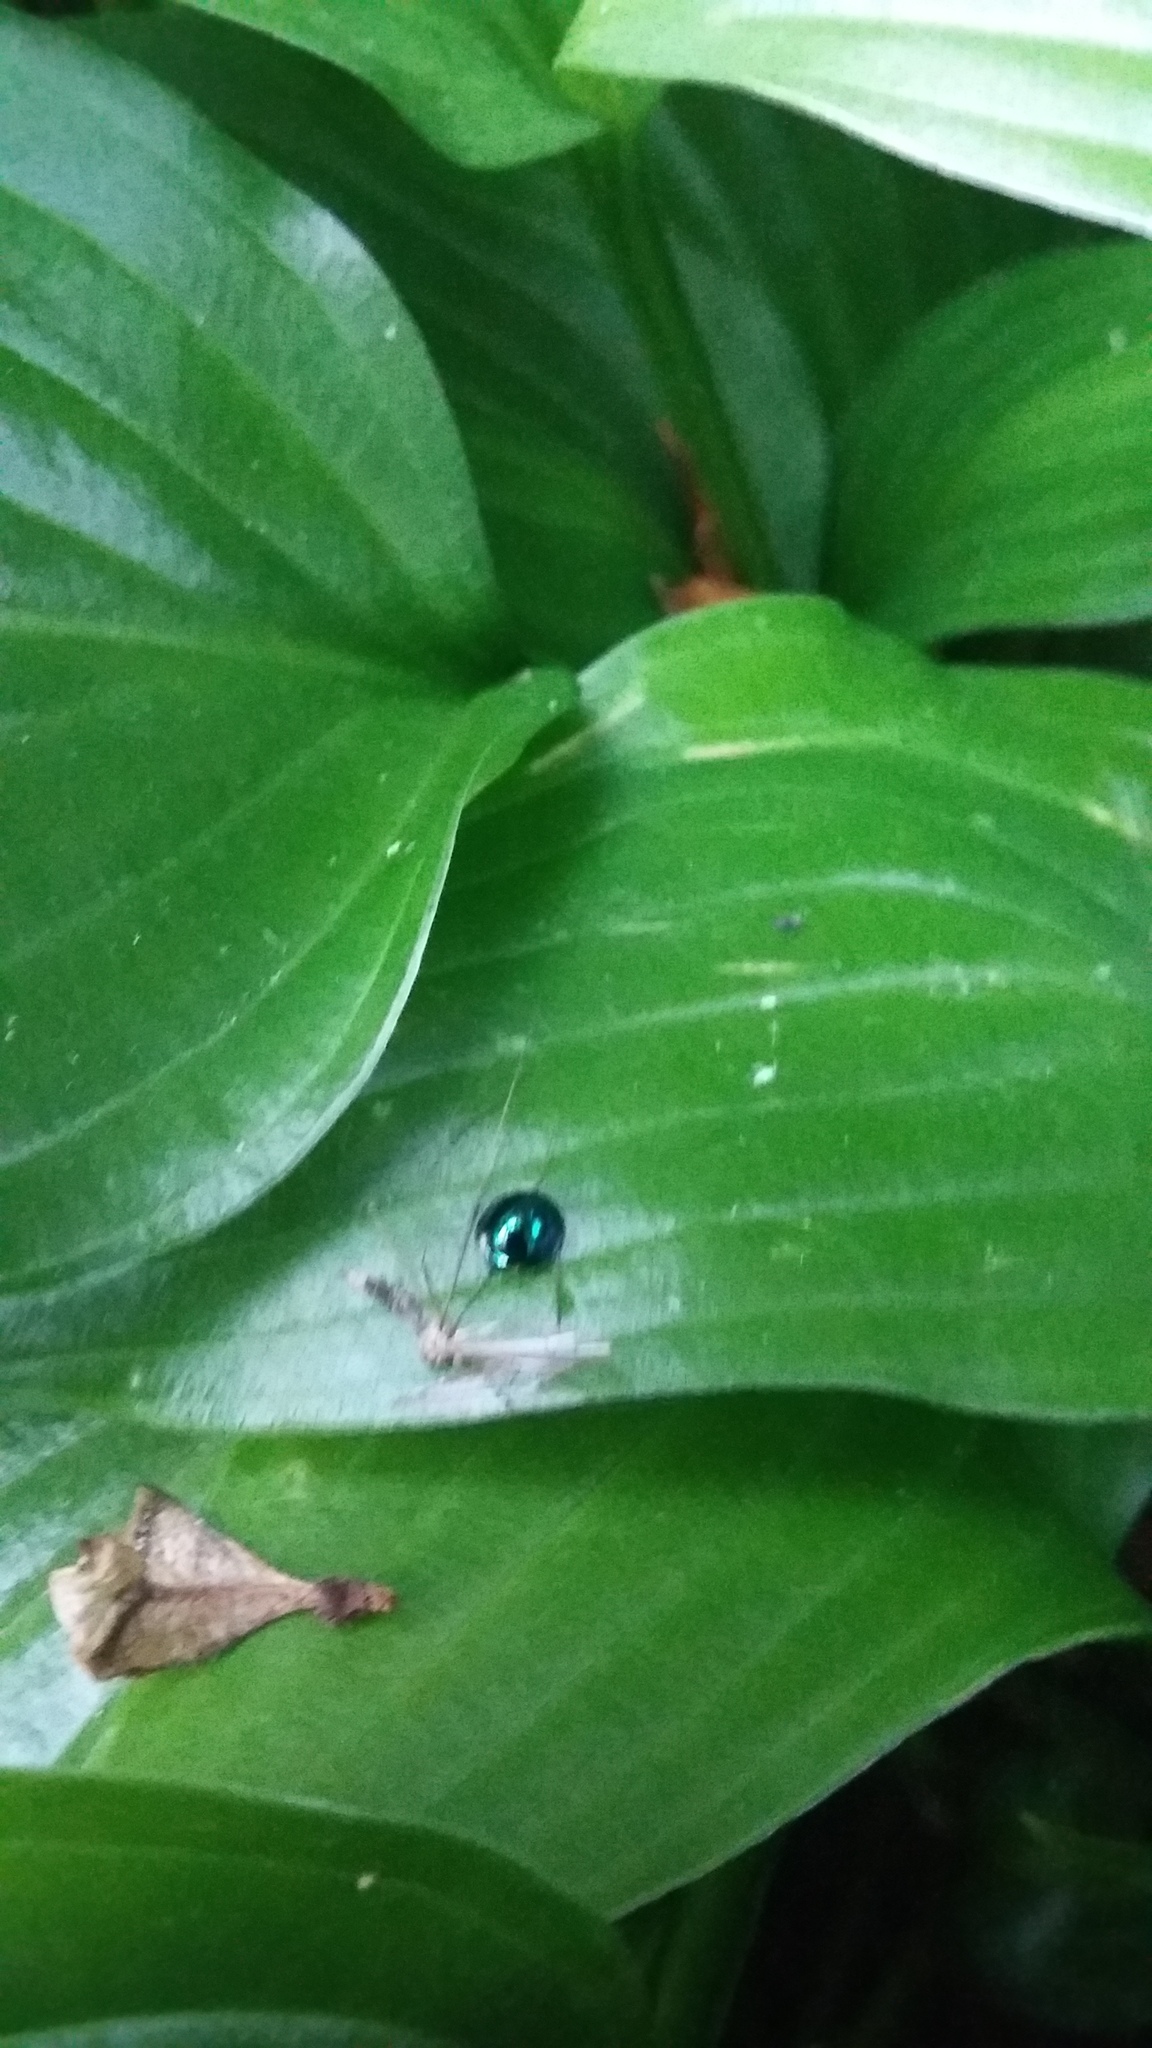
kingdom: Animalia
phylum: Arthropoda
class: Insecta
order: Coleoptera
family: Coccinellidae
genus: Halmus
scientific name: Halmus chalybeus
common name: Steel blue ladybird beetle
